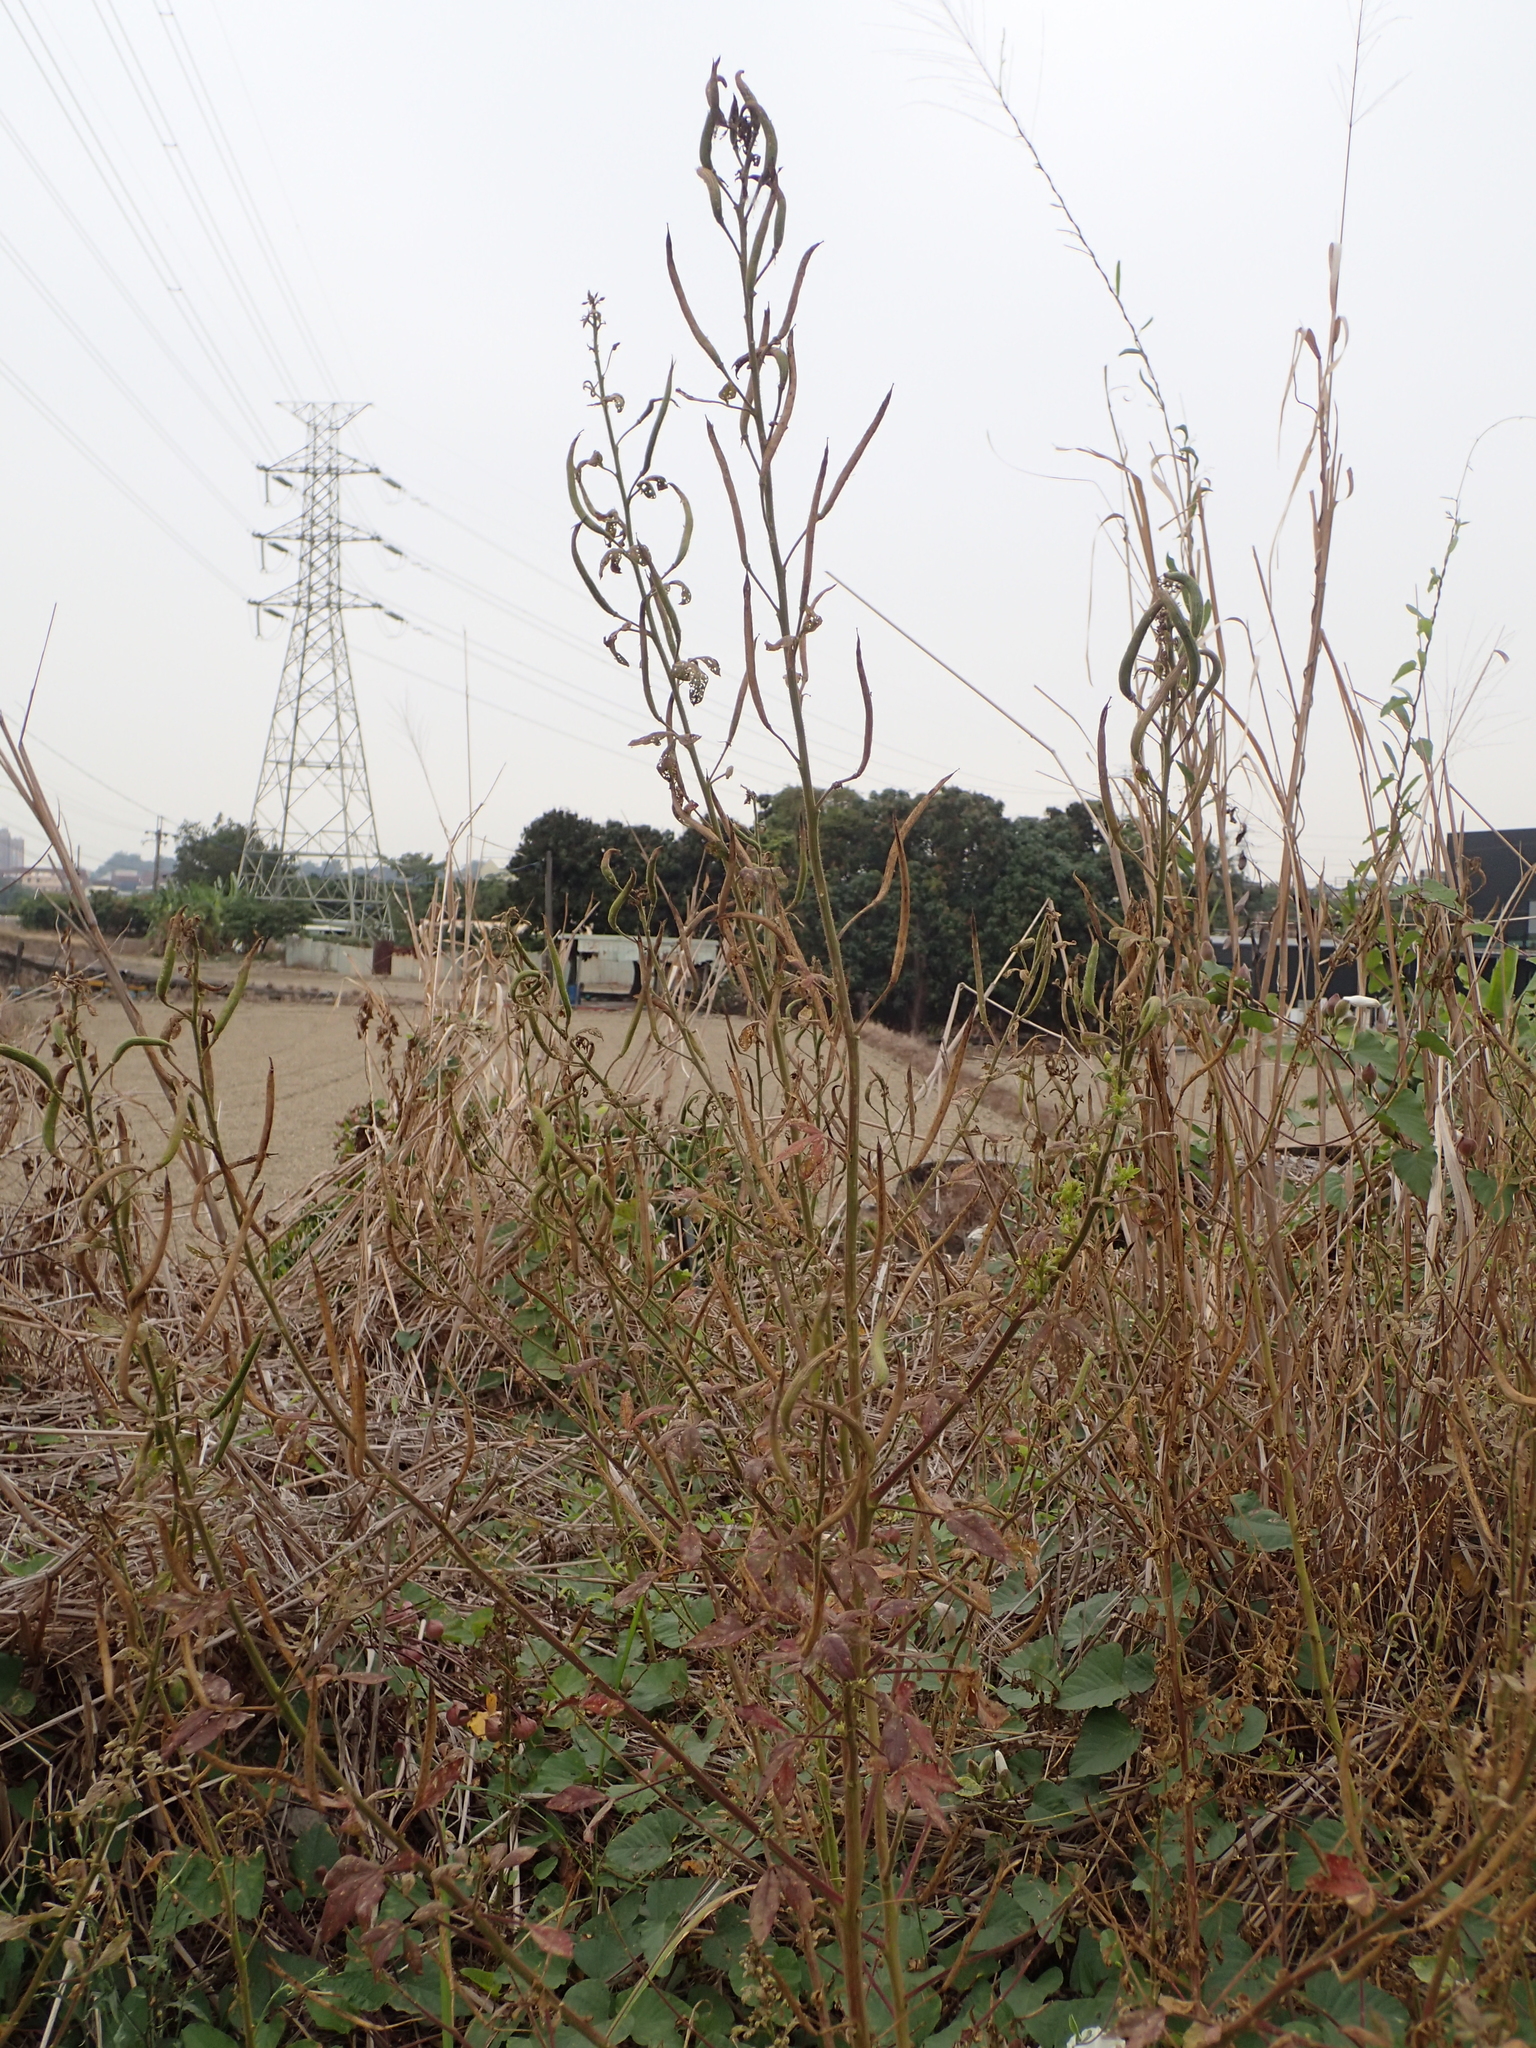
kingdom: Plantae
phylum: Tracheophyta
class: Magnoliopsida
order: Brassicales
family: Cleomaceae
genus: Arivela
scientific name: Arivela viscosa
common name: Asian spiderflower
